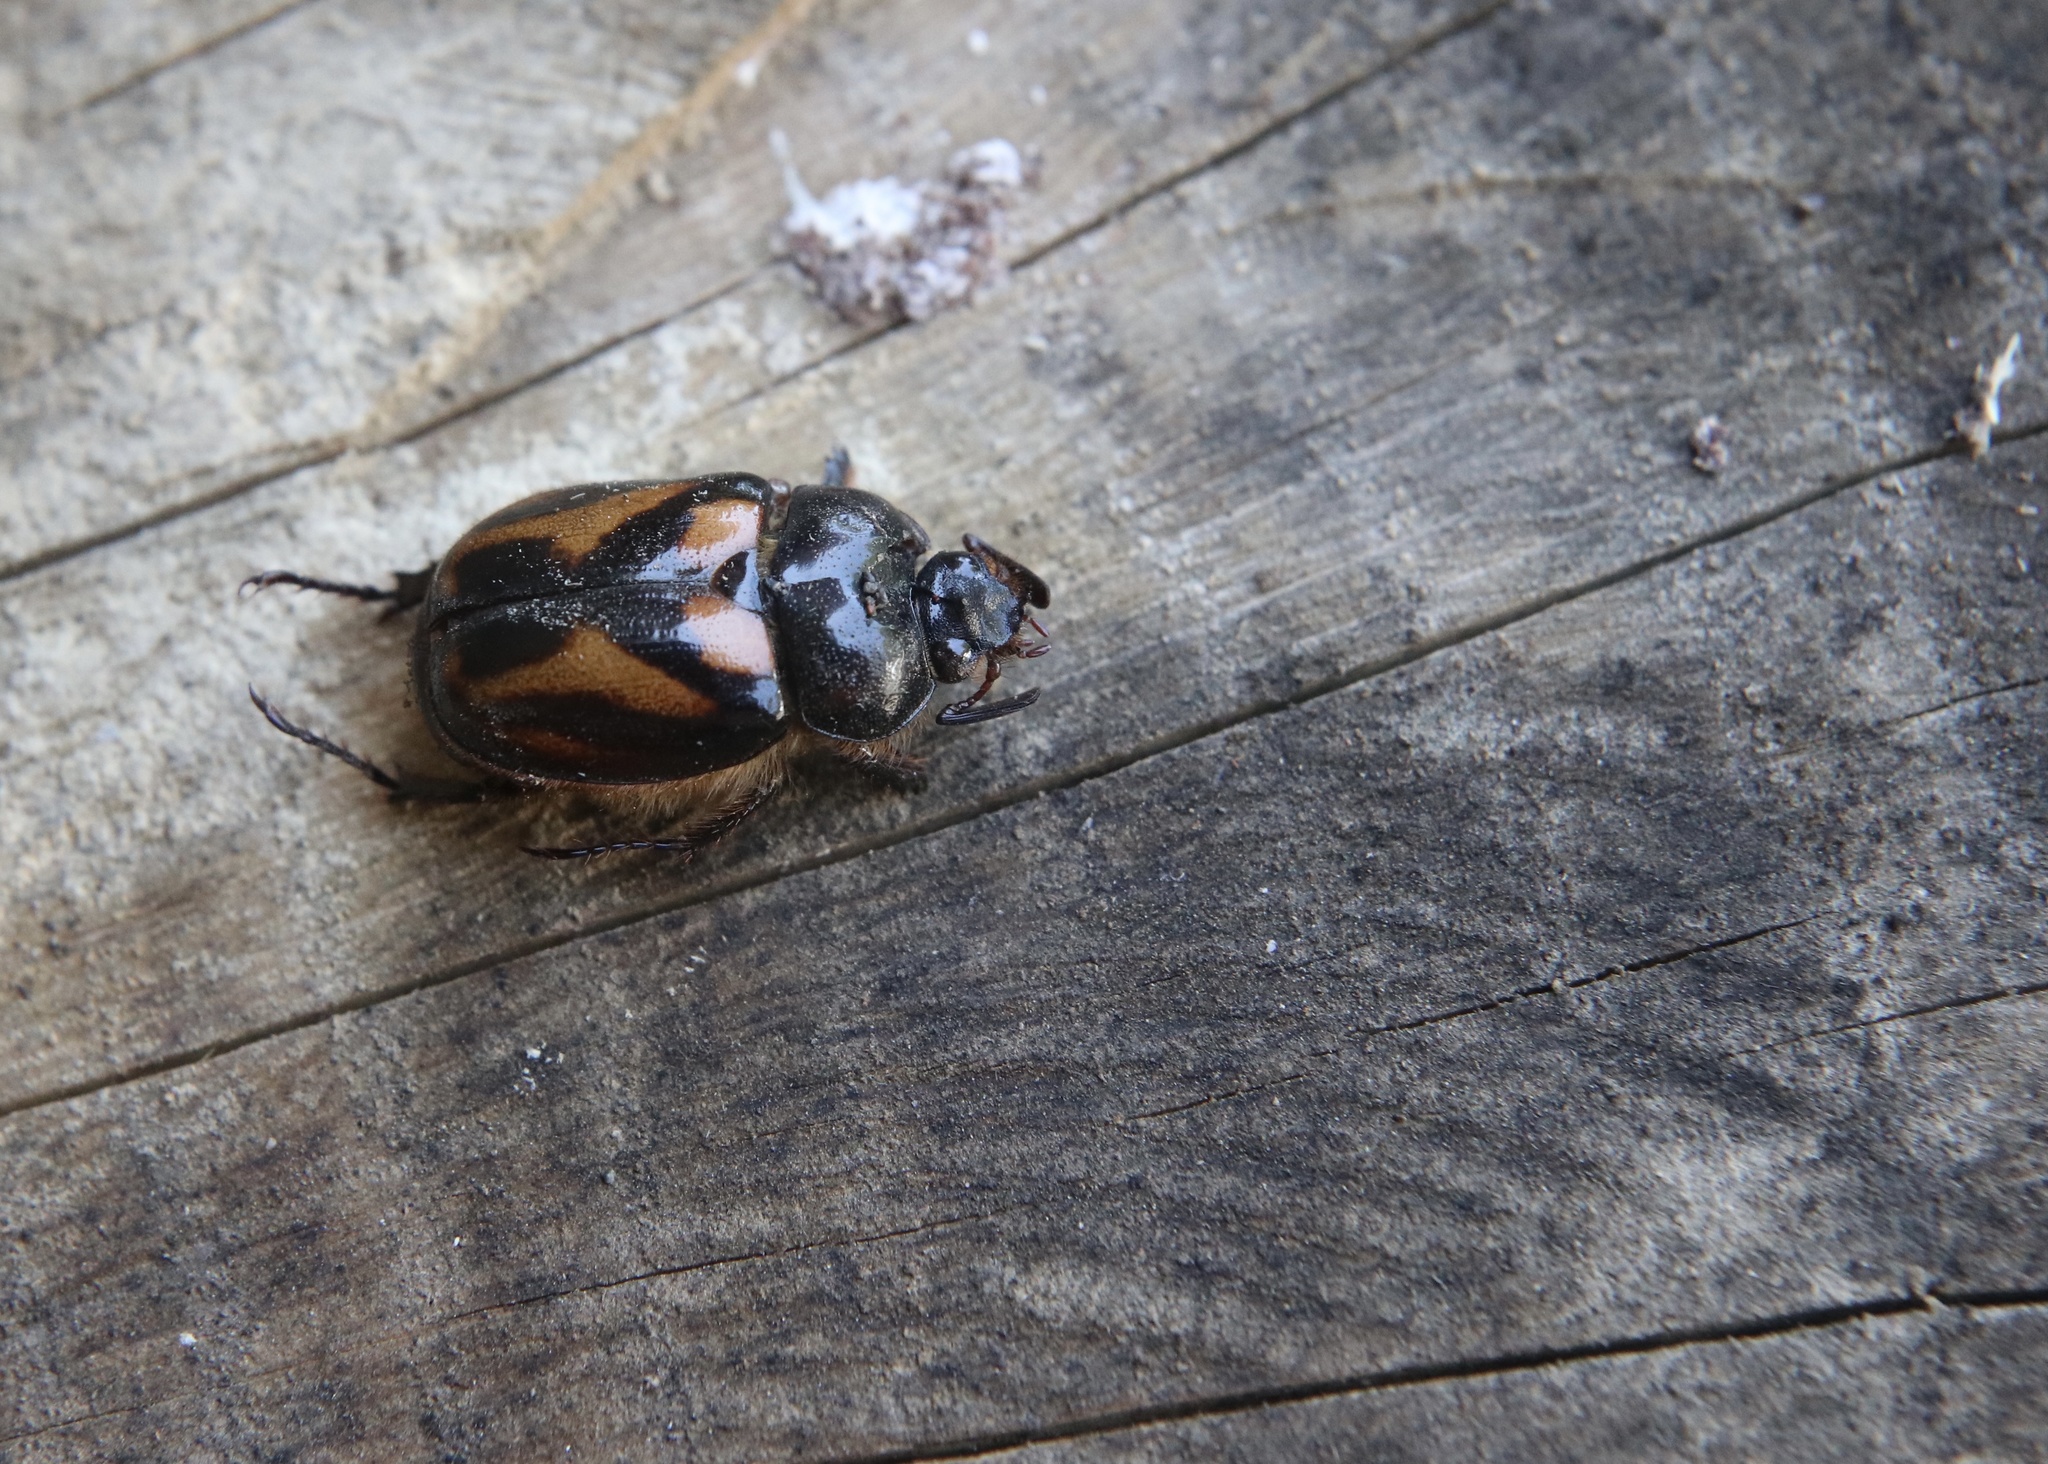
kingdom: Animalia
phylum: Arthropoda
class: Insecta
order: Coleoptera
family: Scarabaeidae
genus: Oryctomorphus
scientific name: Oryctomorphus bimaculatus
